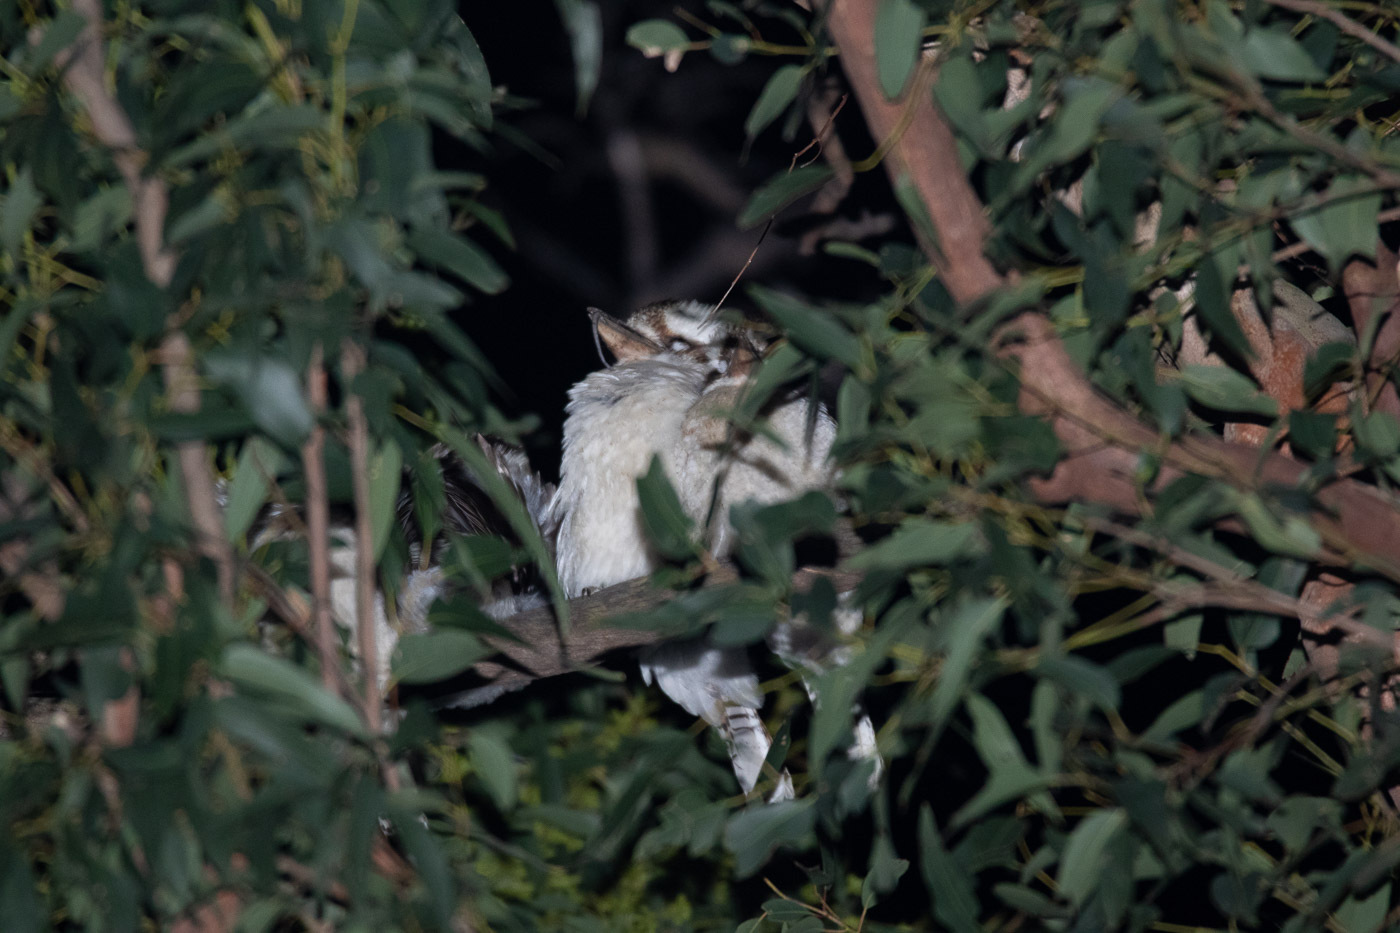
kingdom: Animalia
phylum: Chordata
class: Aves
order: Coraciiformes
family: Alcedinidae
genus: Dacelo
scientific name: Dacelo novaeguineae
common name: Laughing kookaburra
